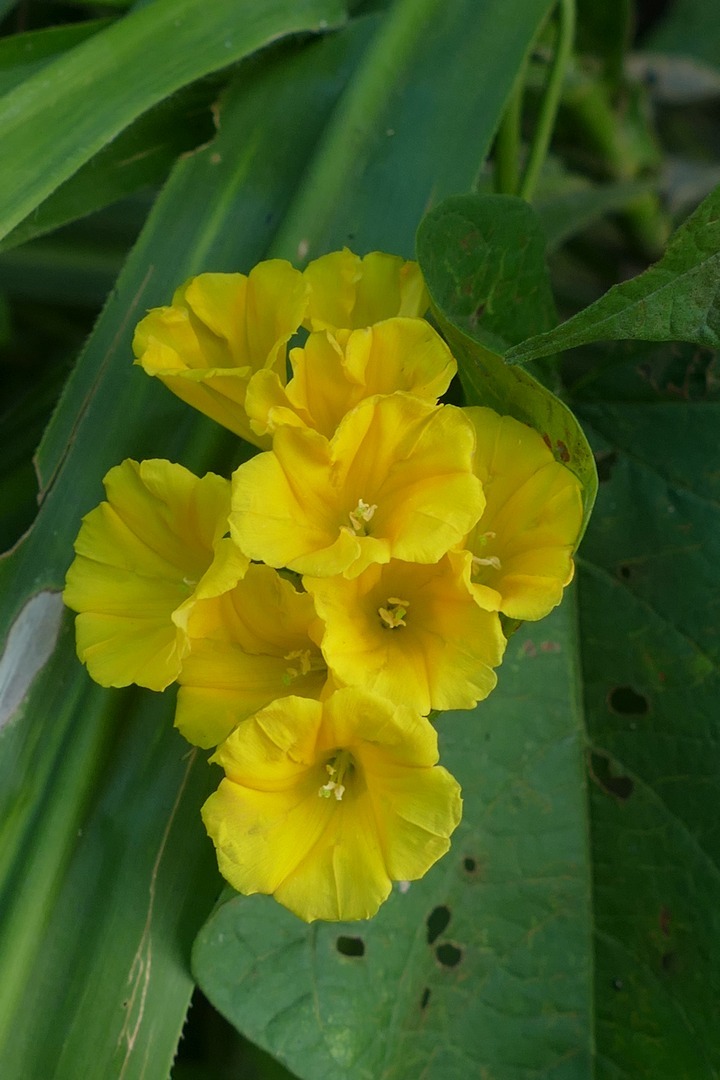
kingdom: Plantae
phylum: Tracheophyta
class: Magnoliopsida
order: Solanales
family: Convolvulaceae
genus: Camonea
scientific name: Camonea umbellata
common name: Hogvine
